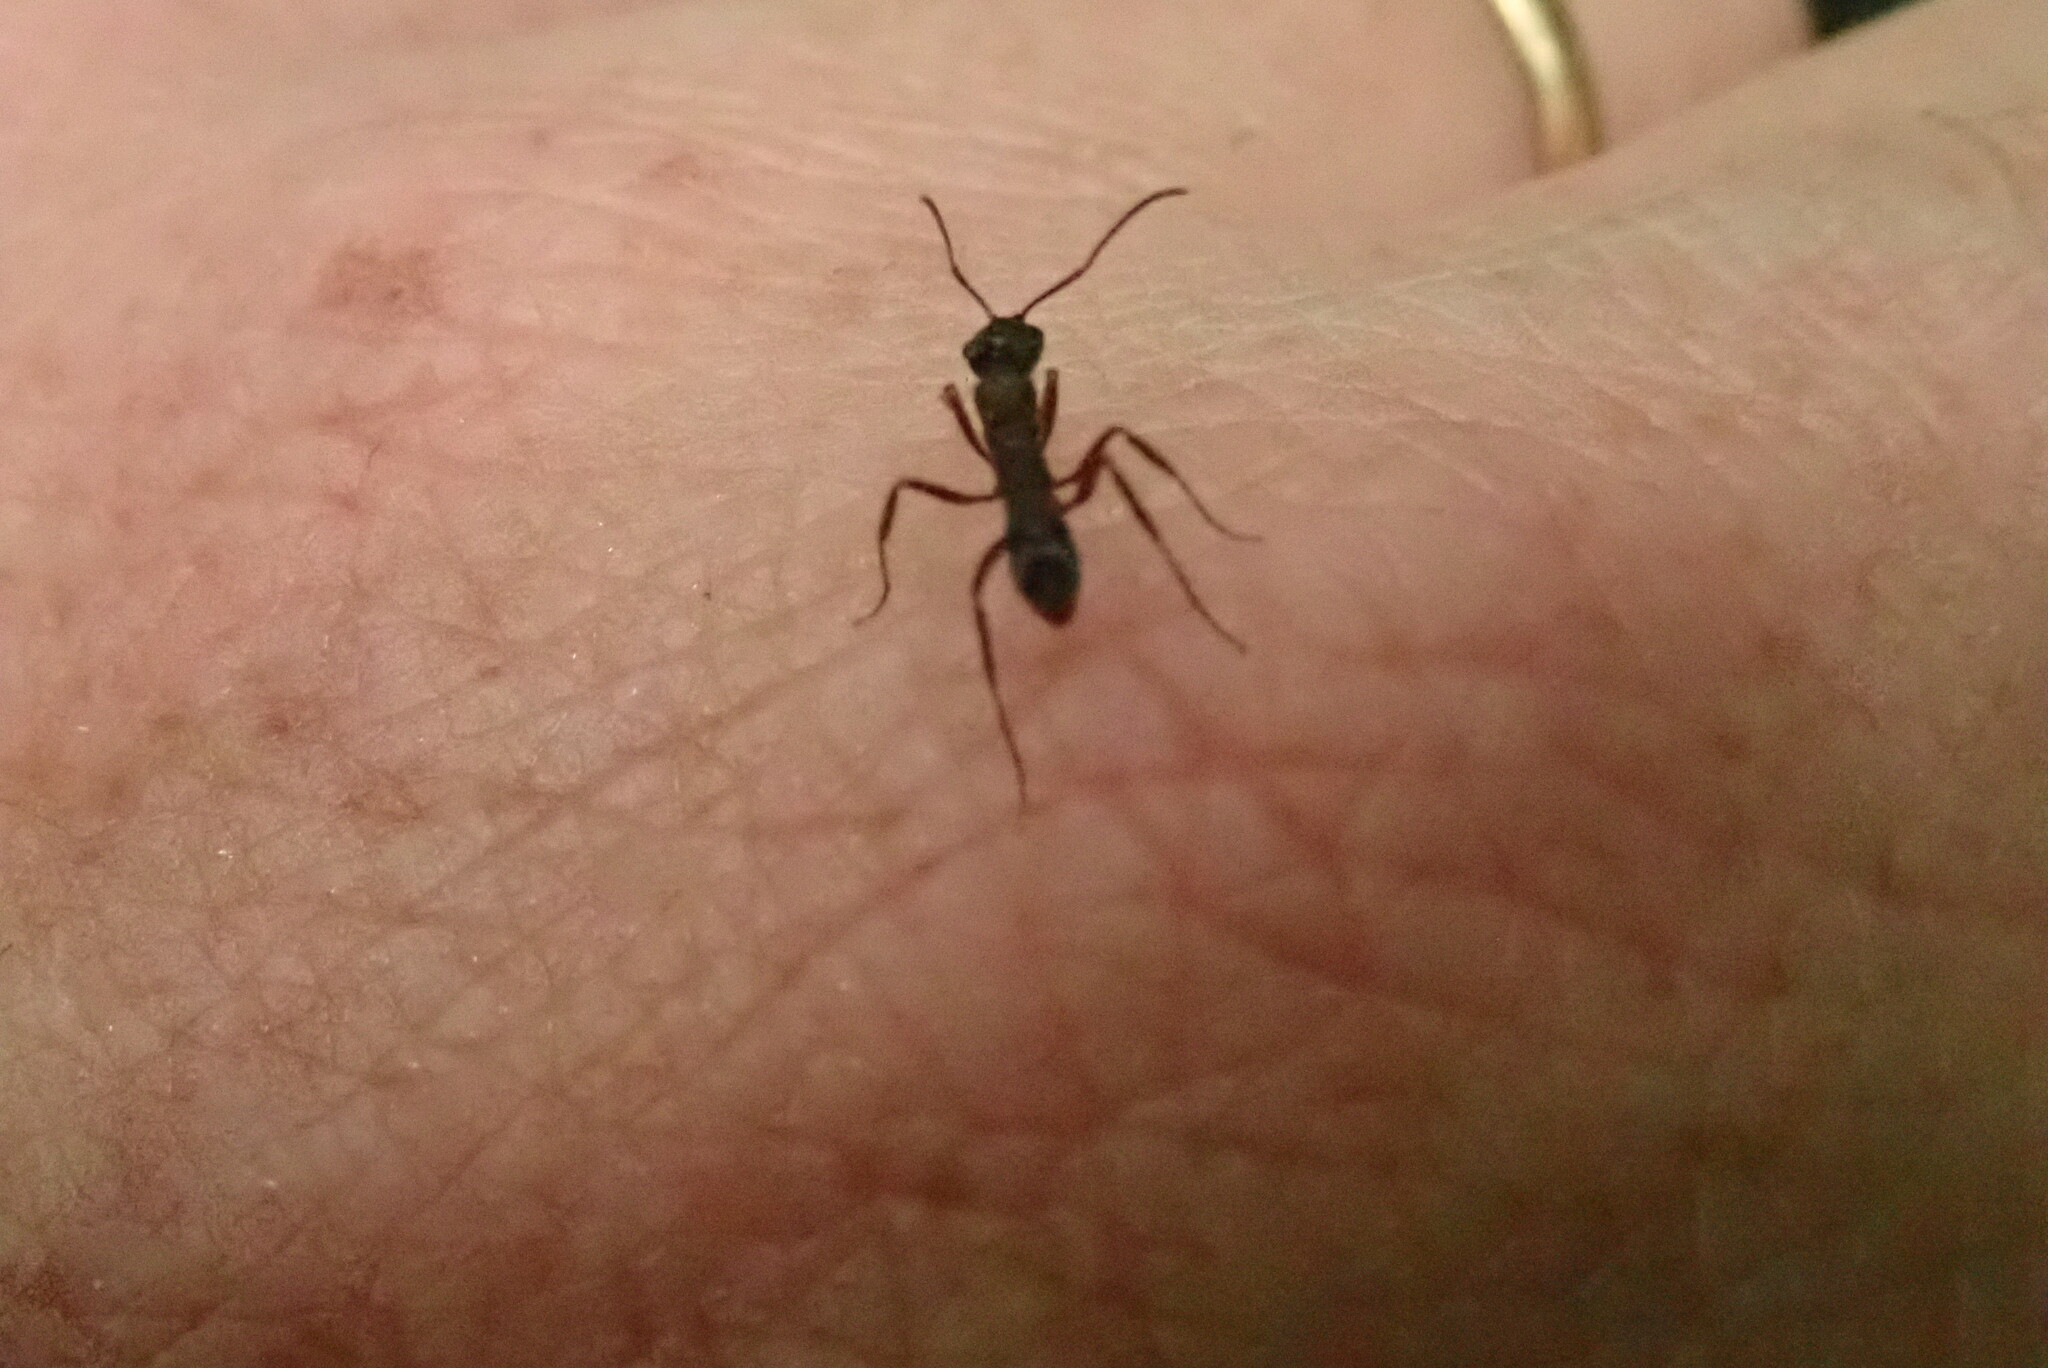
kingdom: Animalia
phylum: Arthropoda
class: Insecta
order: Hymenoptera
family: Formicidae
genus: Ectatomma
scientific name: Ectatomma ruidum
